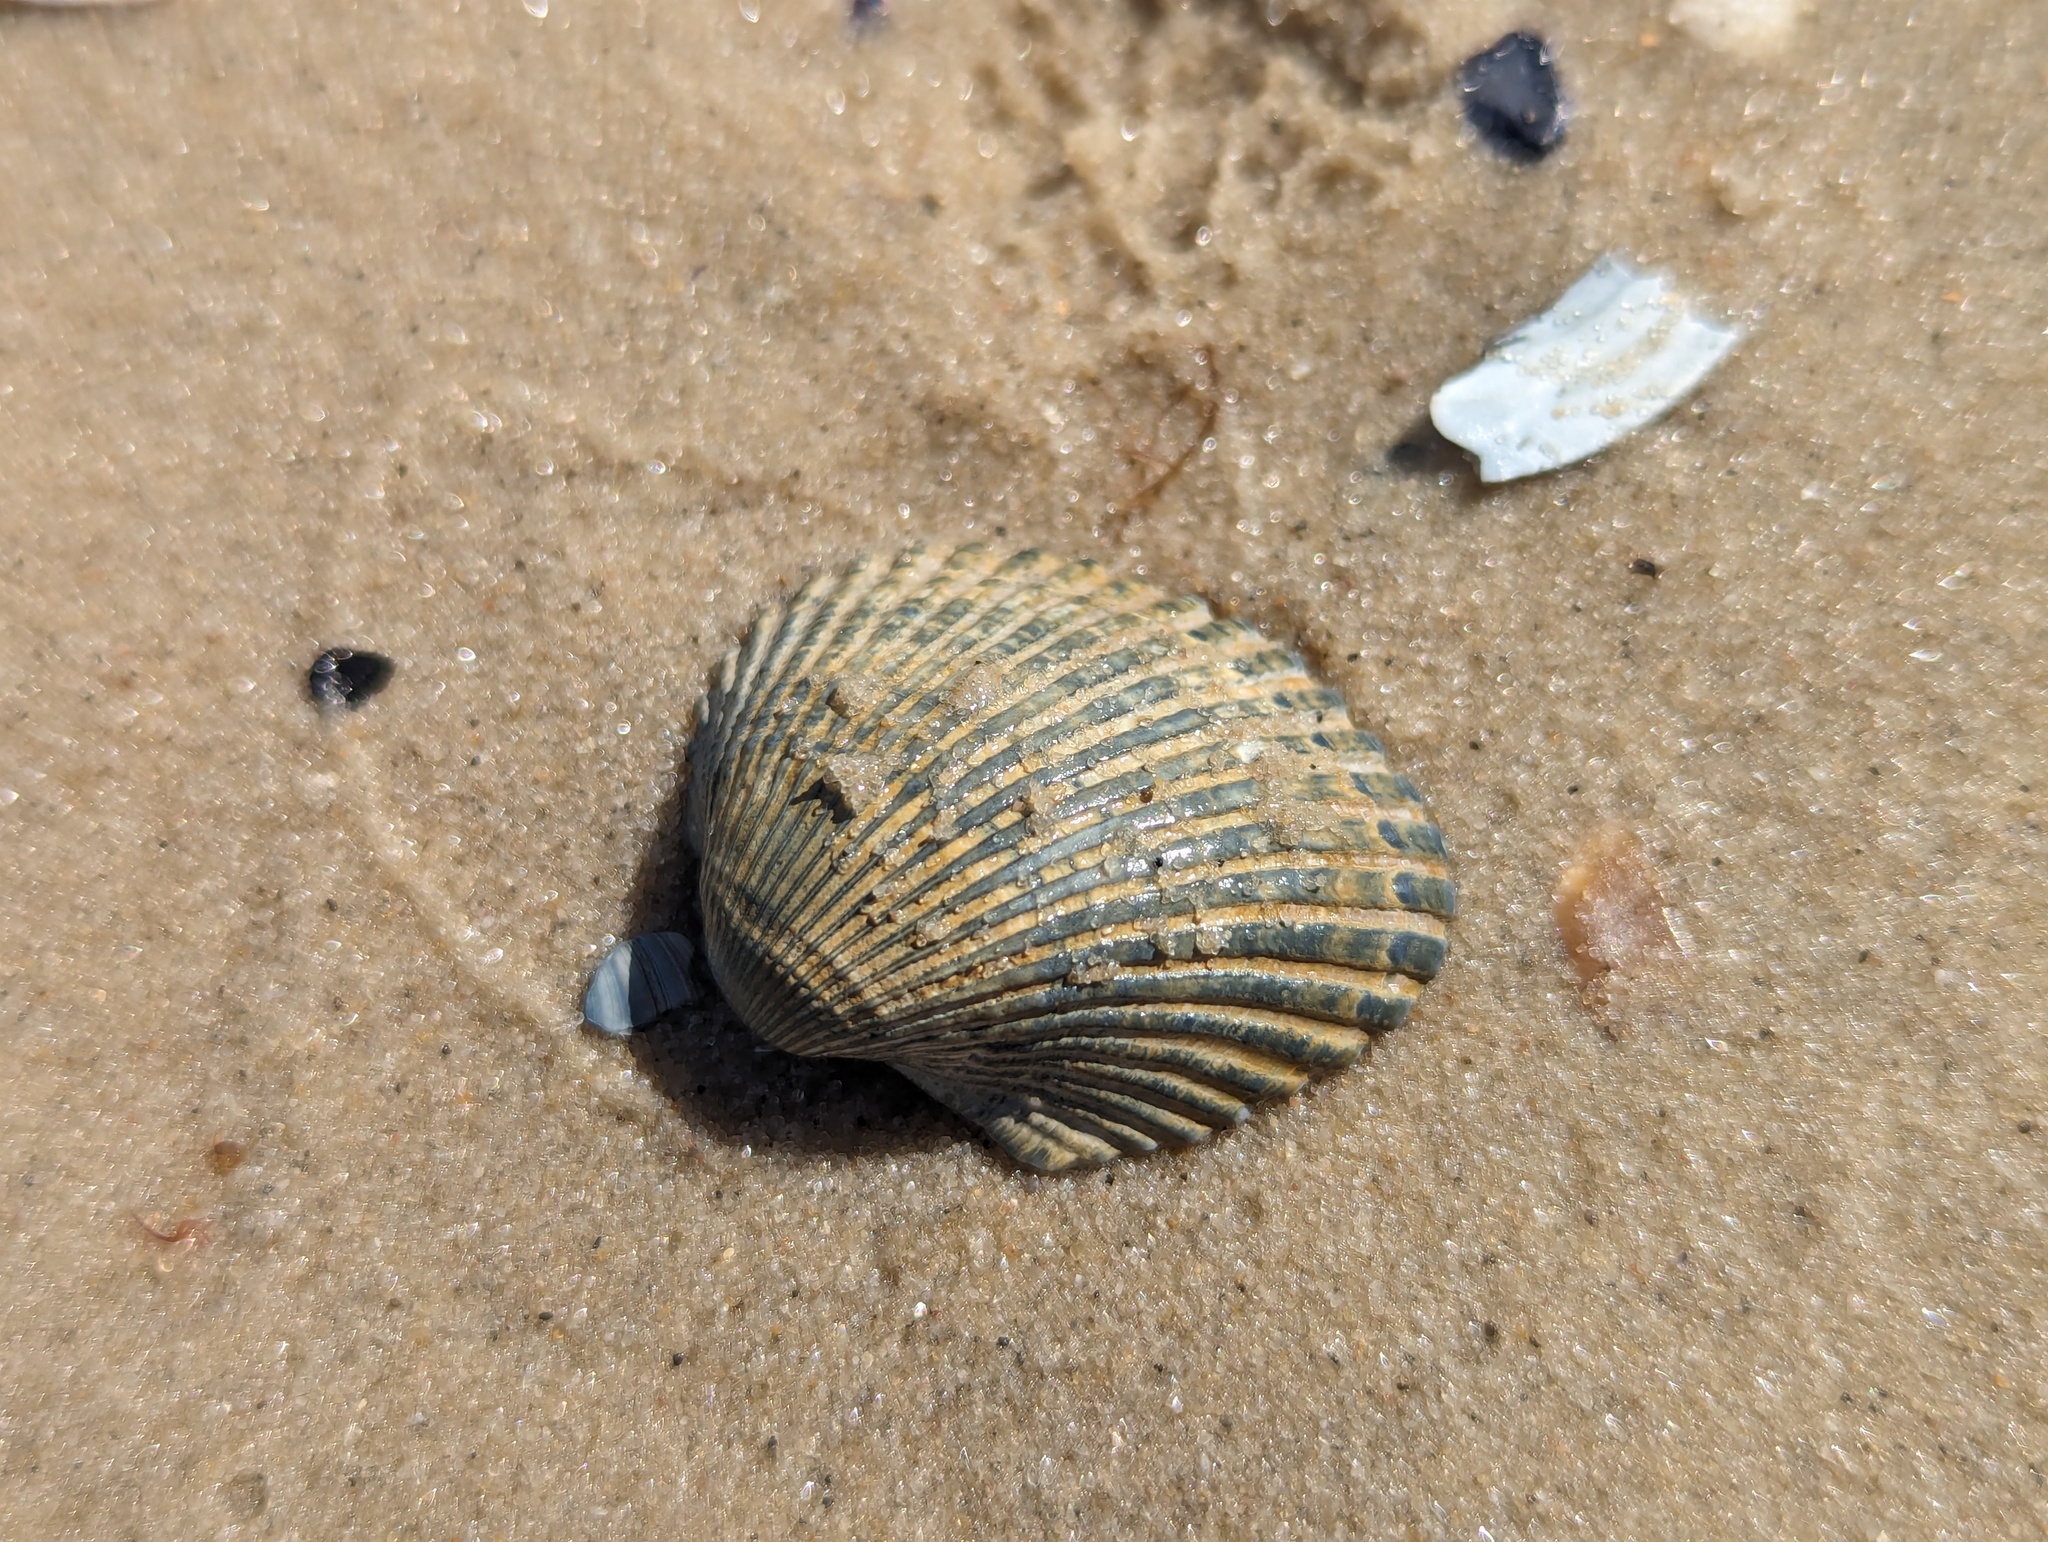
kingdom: Animalia
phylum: Mollusca
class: Bivalvia
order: Arcida
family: Arcidae
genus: Anadara
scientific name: Anadara trapezia
